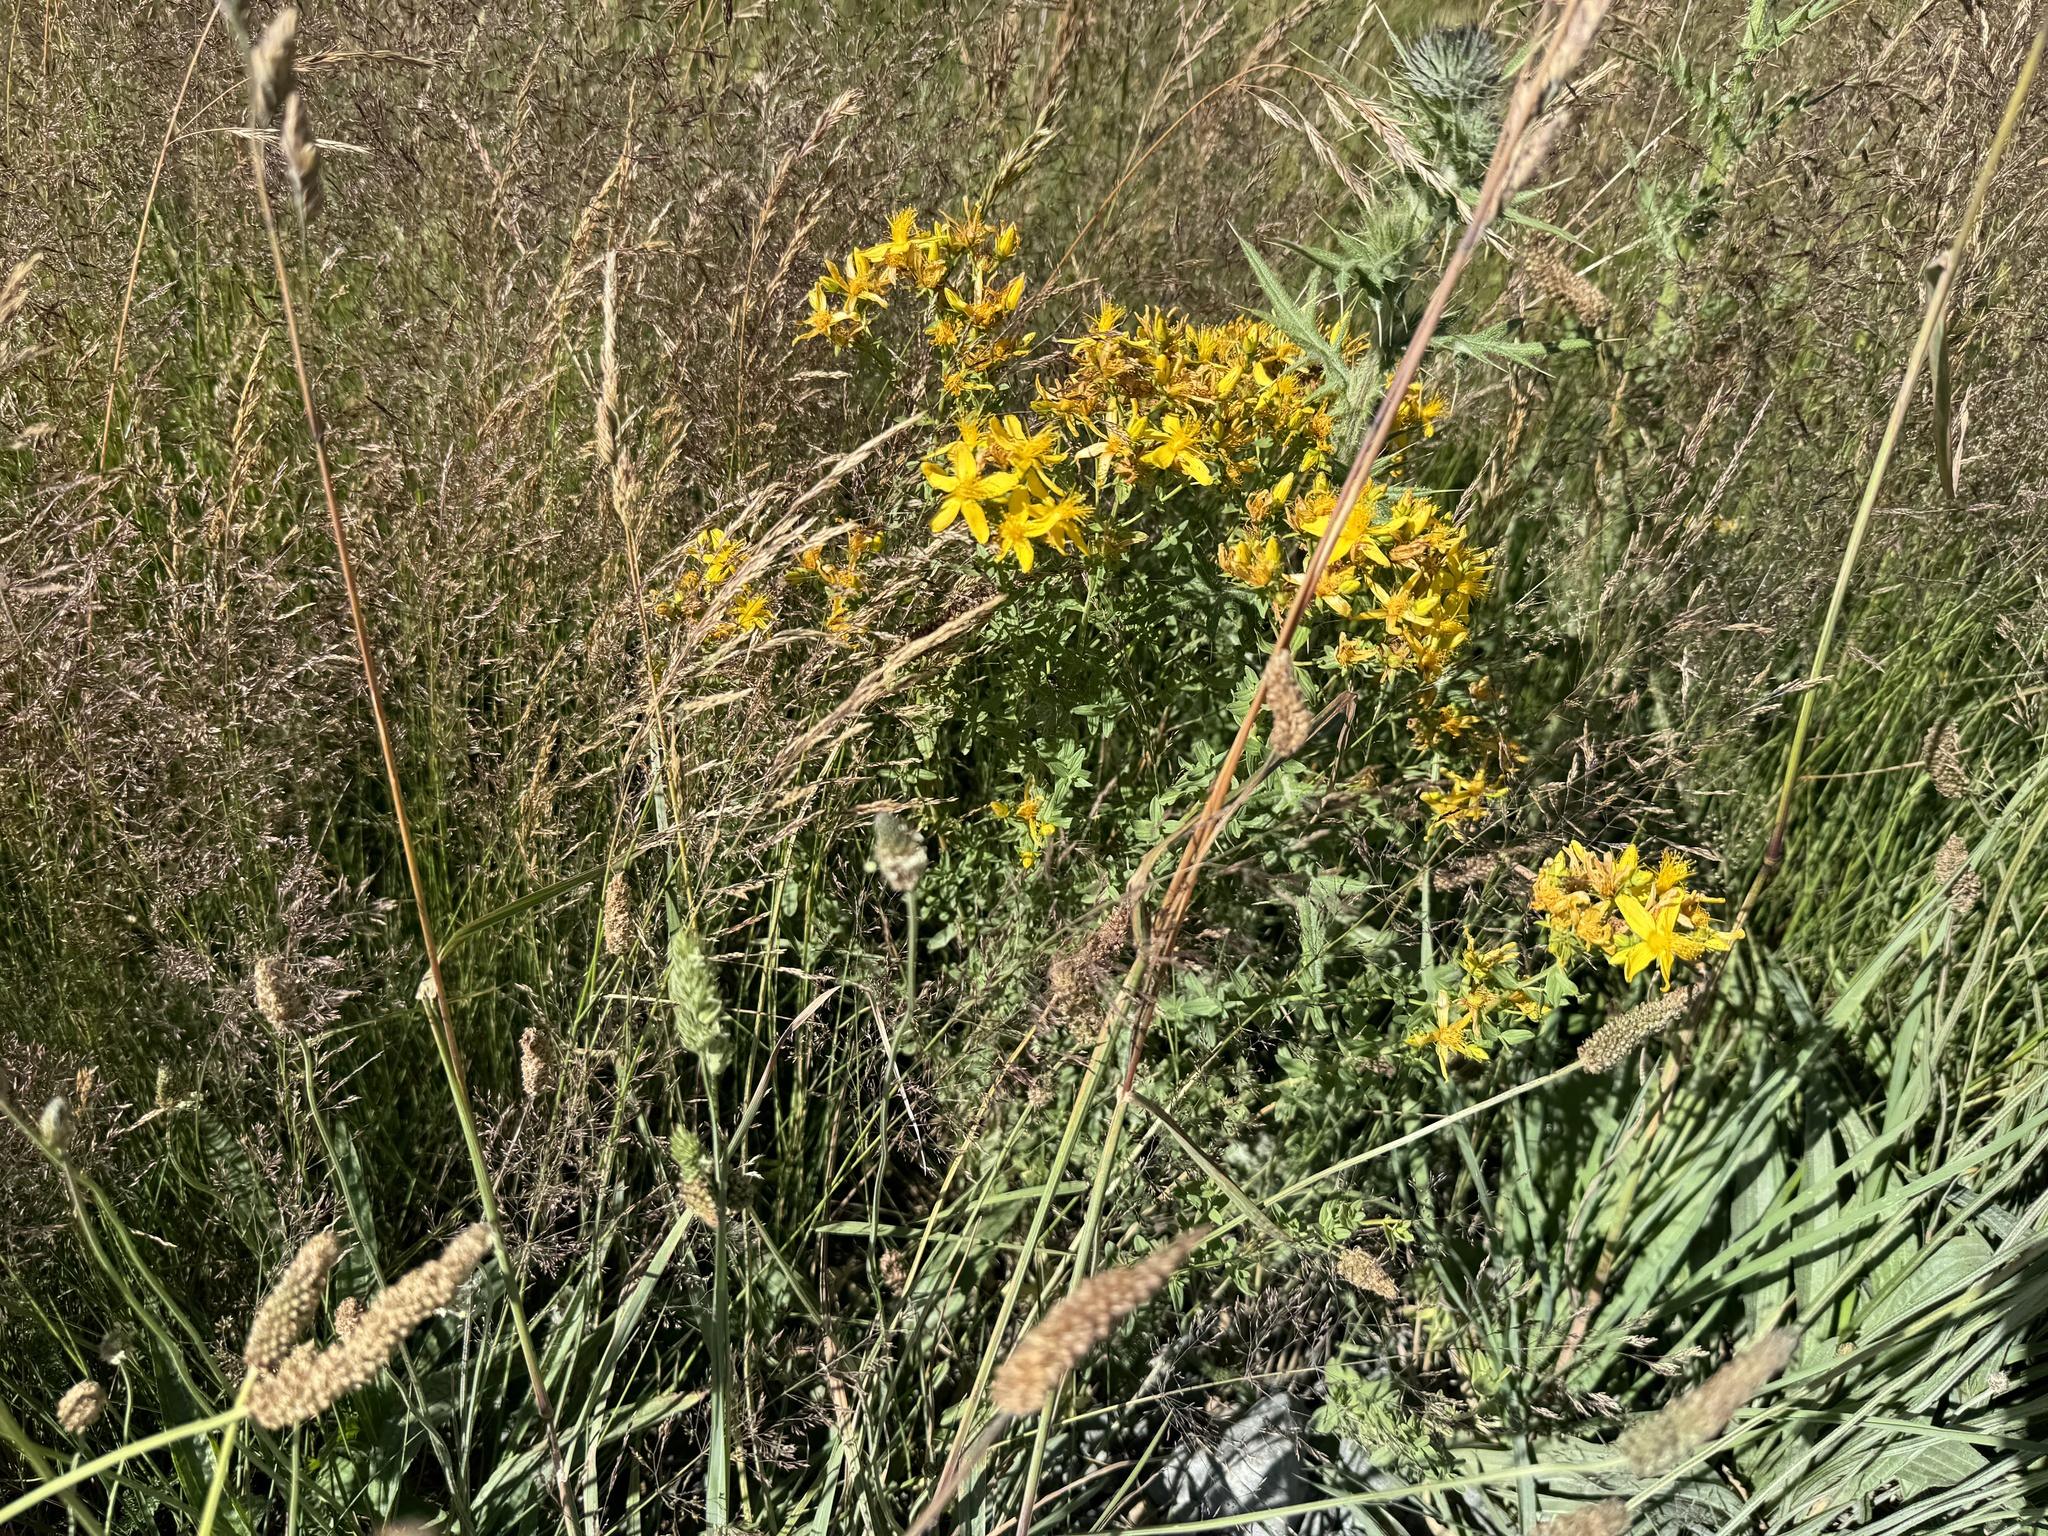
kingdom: Plantae
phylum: Tracheophyta
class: Magnoliopsida
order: Malpighiales
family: Hypericaceae
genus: Hypericum
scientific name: Hypericum perforatum
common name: Common st. johnswort
